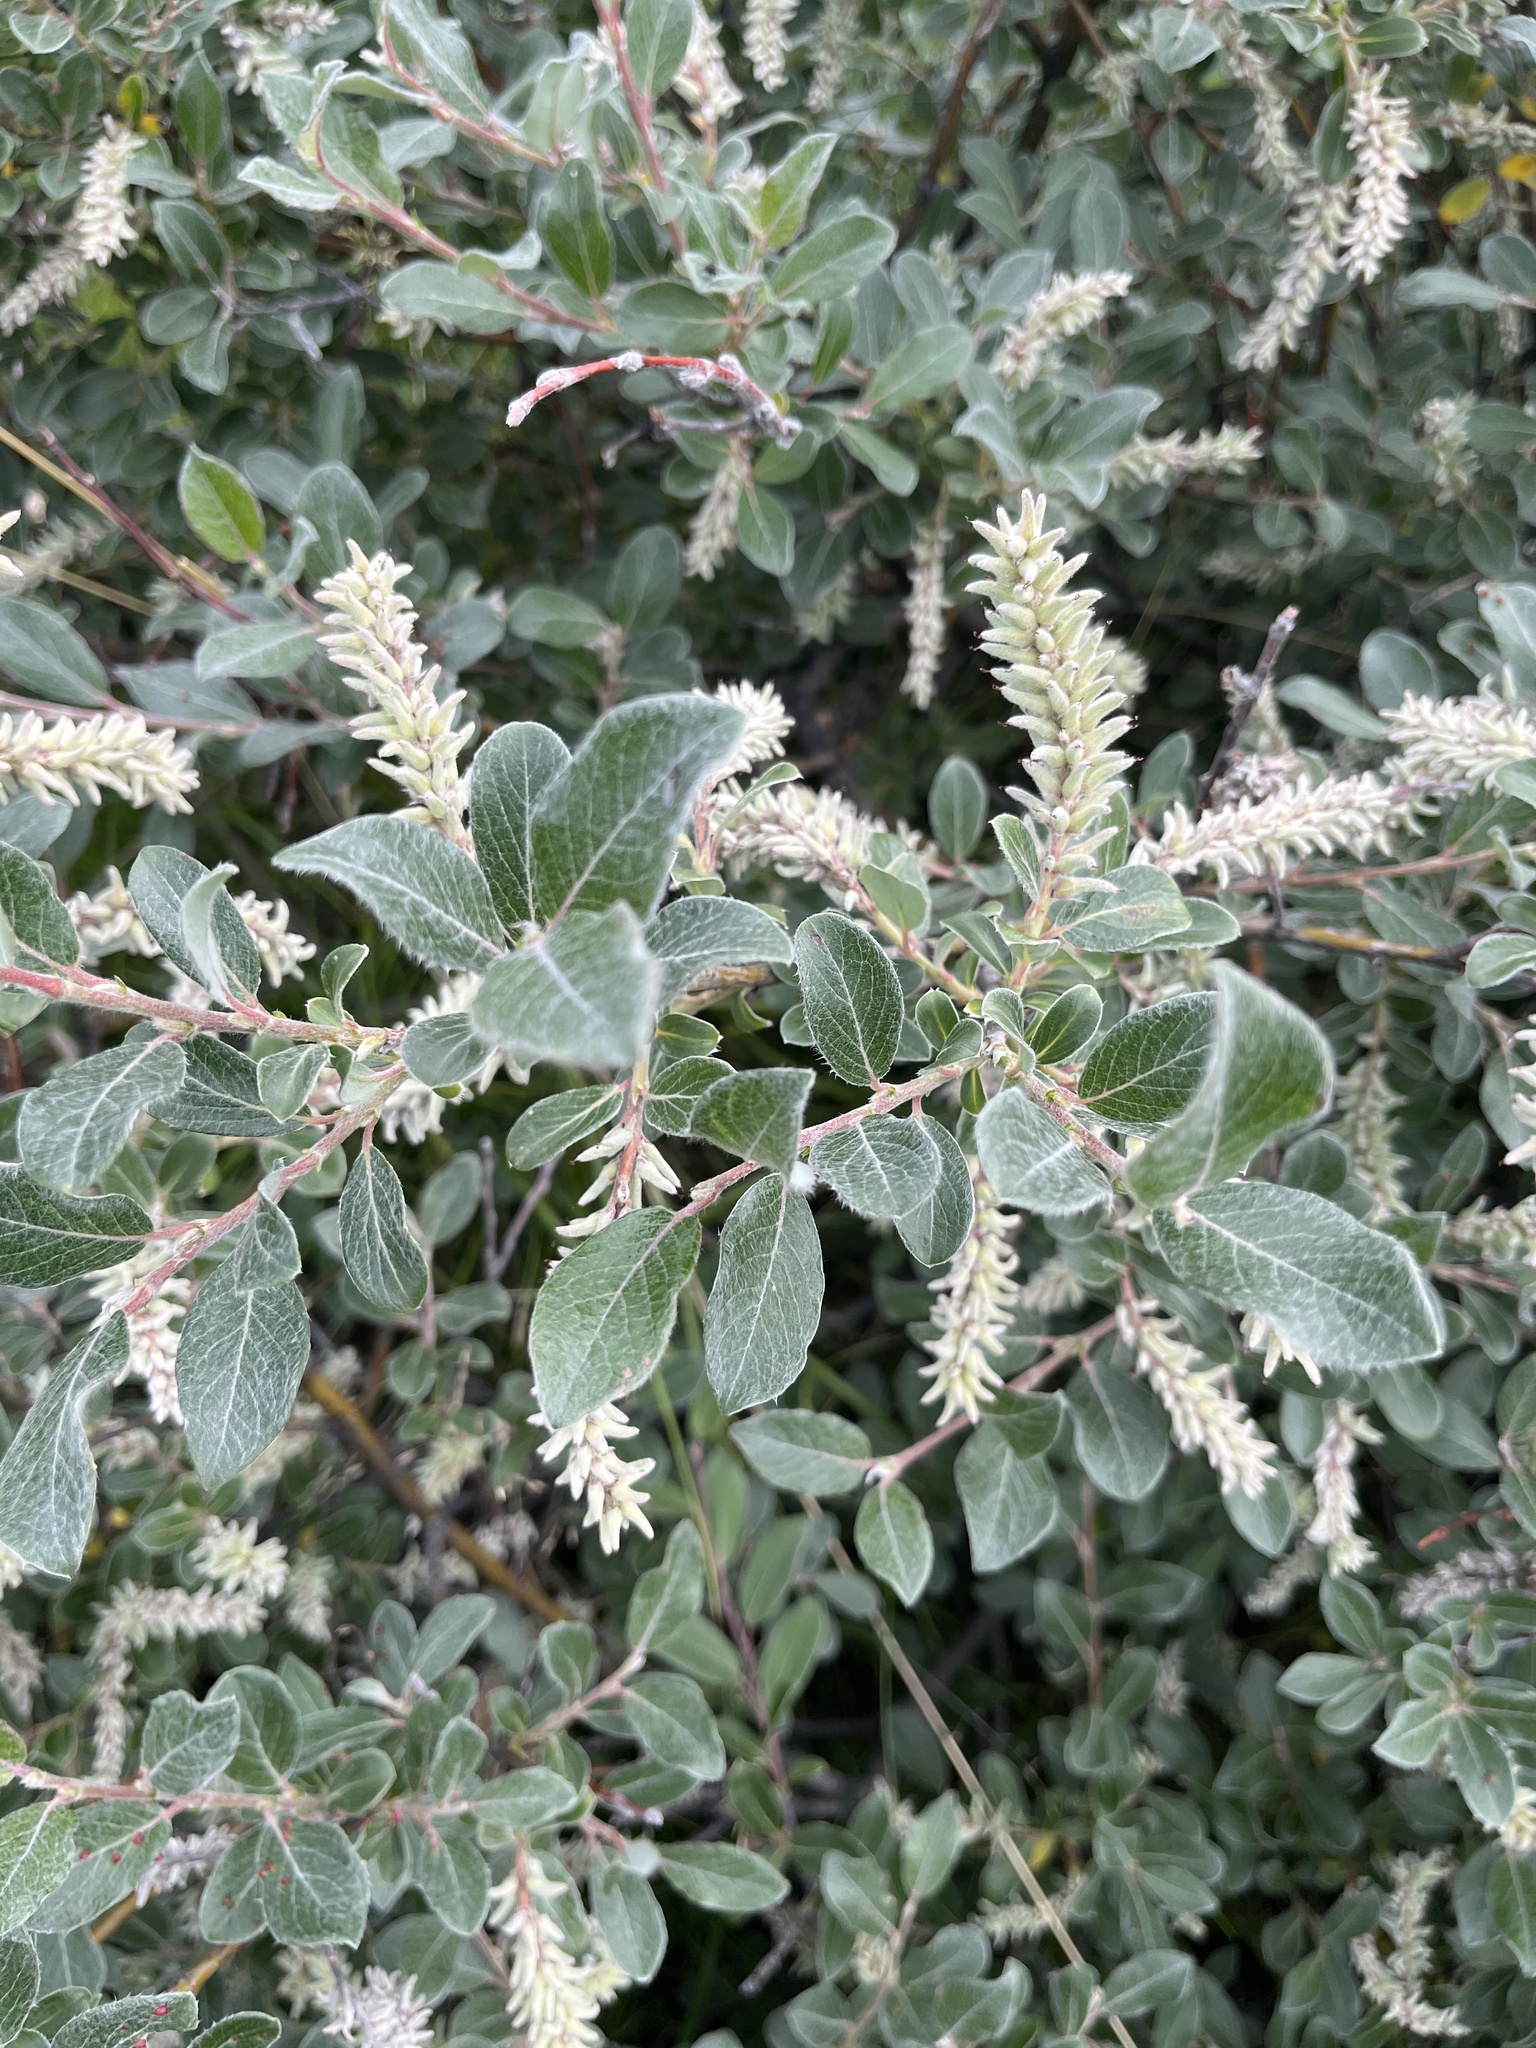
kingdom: Plantae
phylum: Tracheophyta
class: Magnoliopsida
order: Malpighiales
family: Salicaceae
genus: Salix
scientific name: Salix glauca
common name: Glaucous willow
